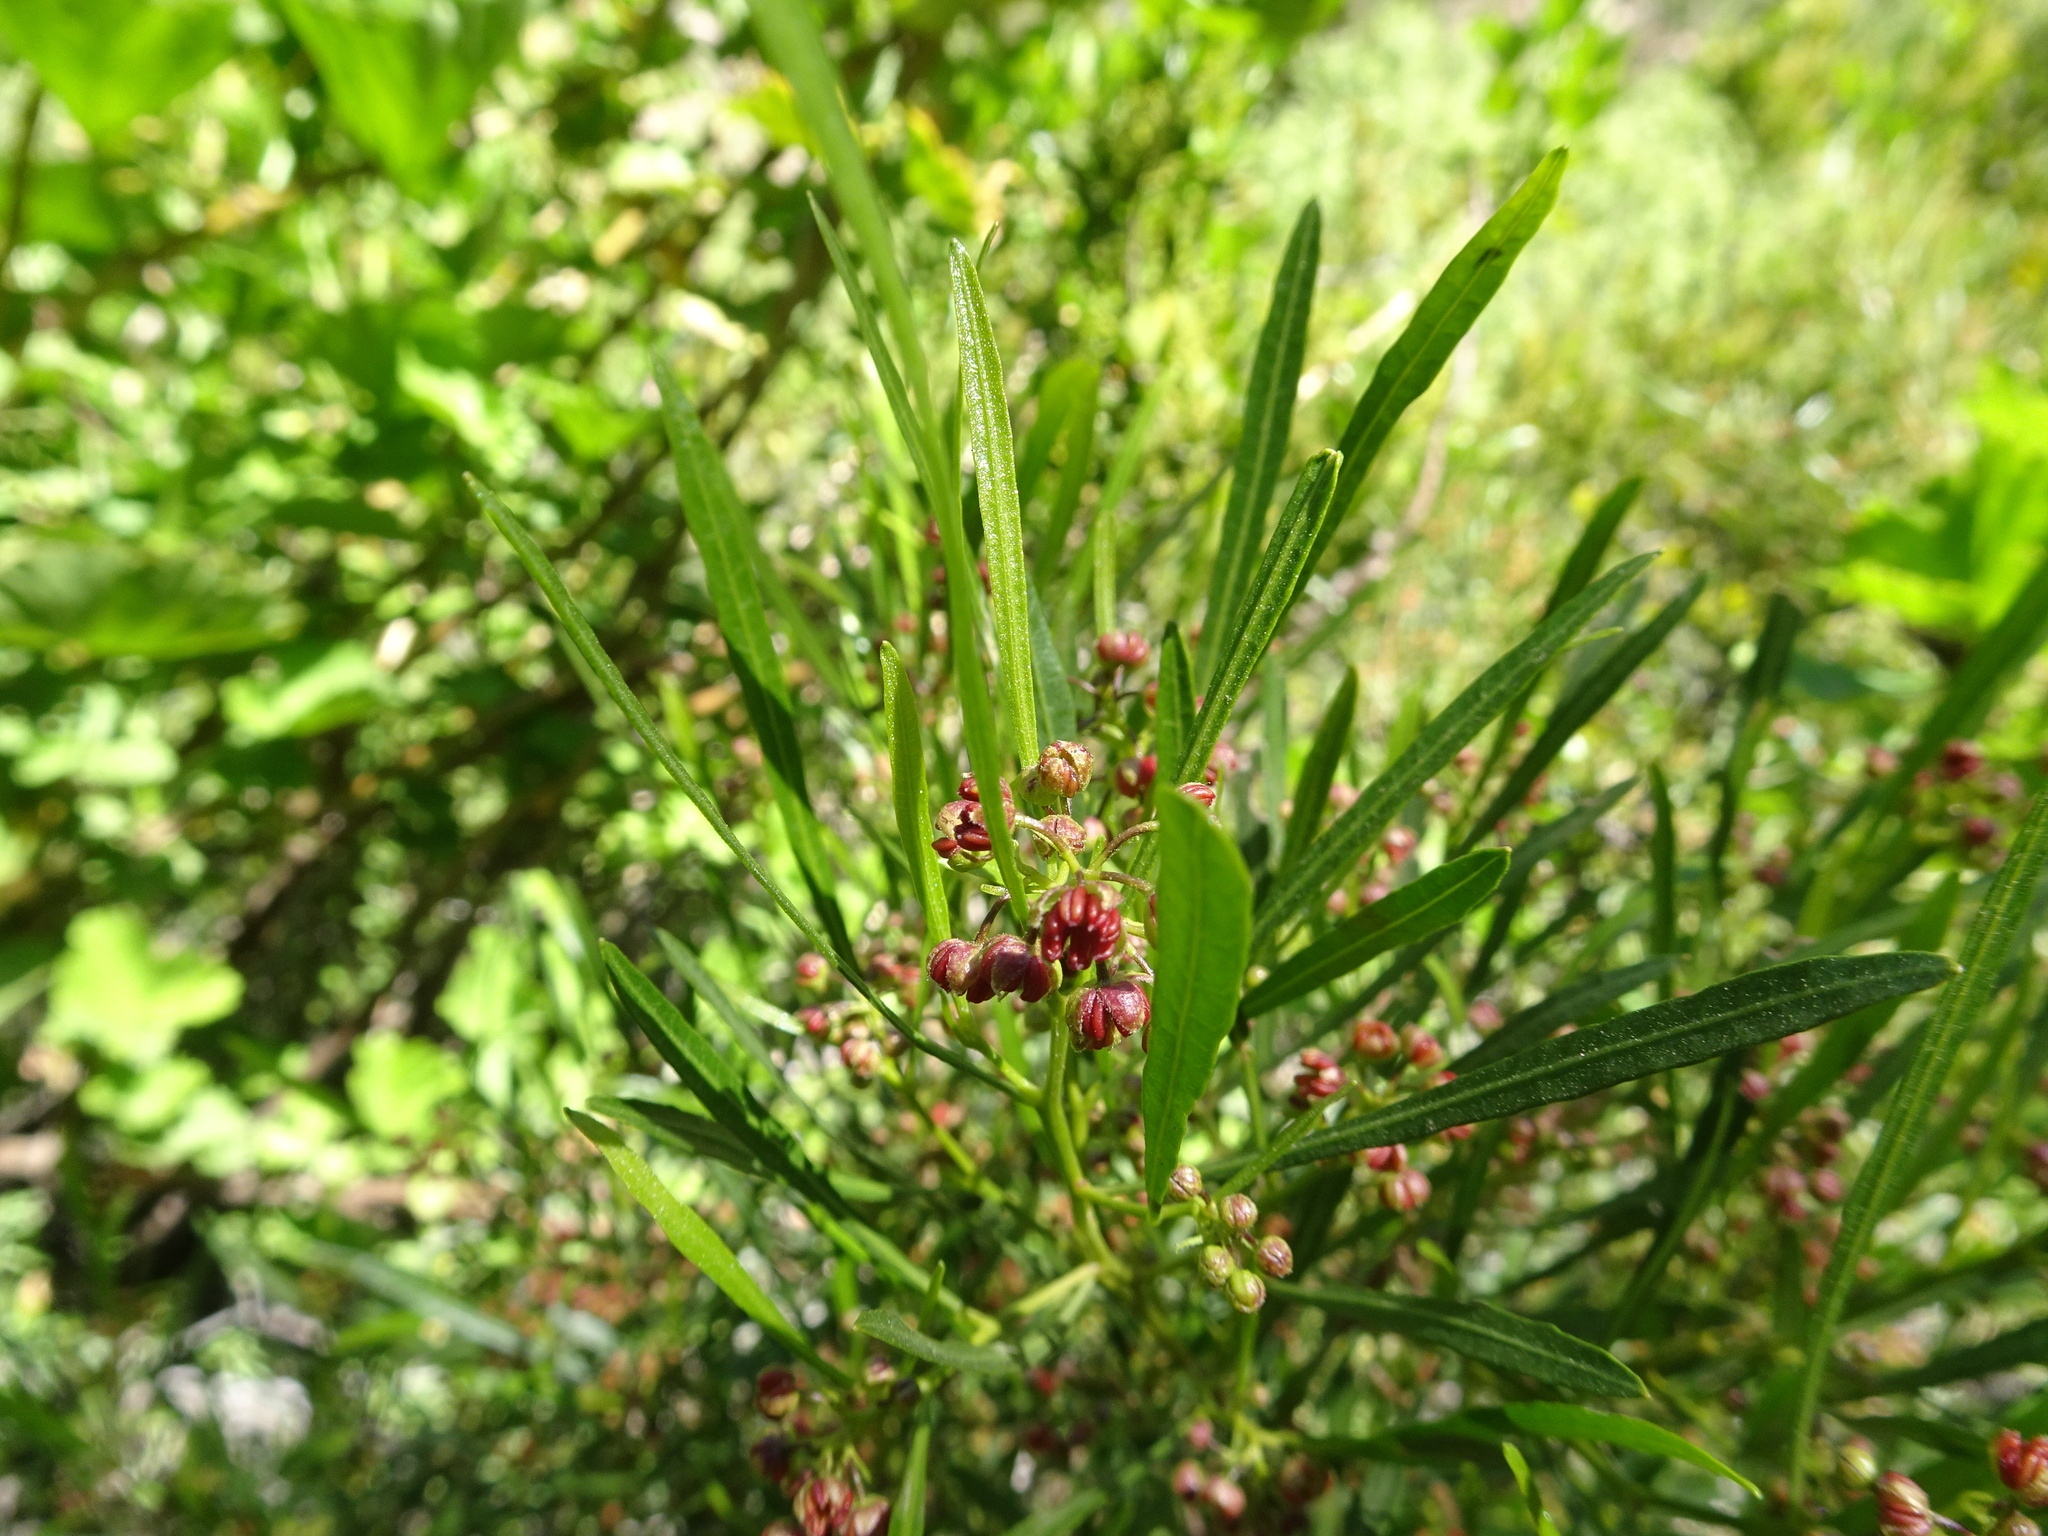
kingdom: Plantae
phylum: Tracheophyta
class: Magnoliopsida
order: Sapindales
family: Sapindaceae
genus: Dodonaea
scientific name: Dodonaea viscosa
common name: Hopbush
